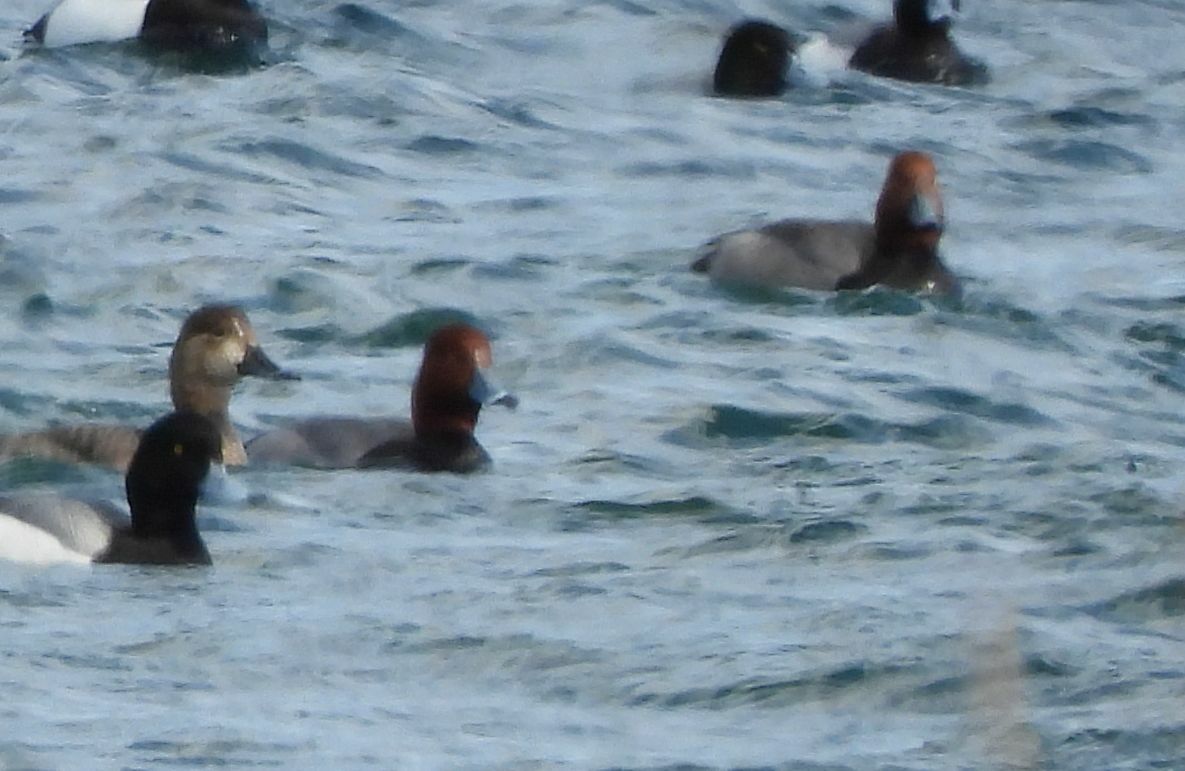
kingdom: Animalia
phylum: Chordata
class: Aves
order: Anseriformes
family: Anatidae
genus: Aythya
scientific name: Aythya americana
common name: Redhead
